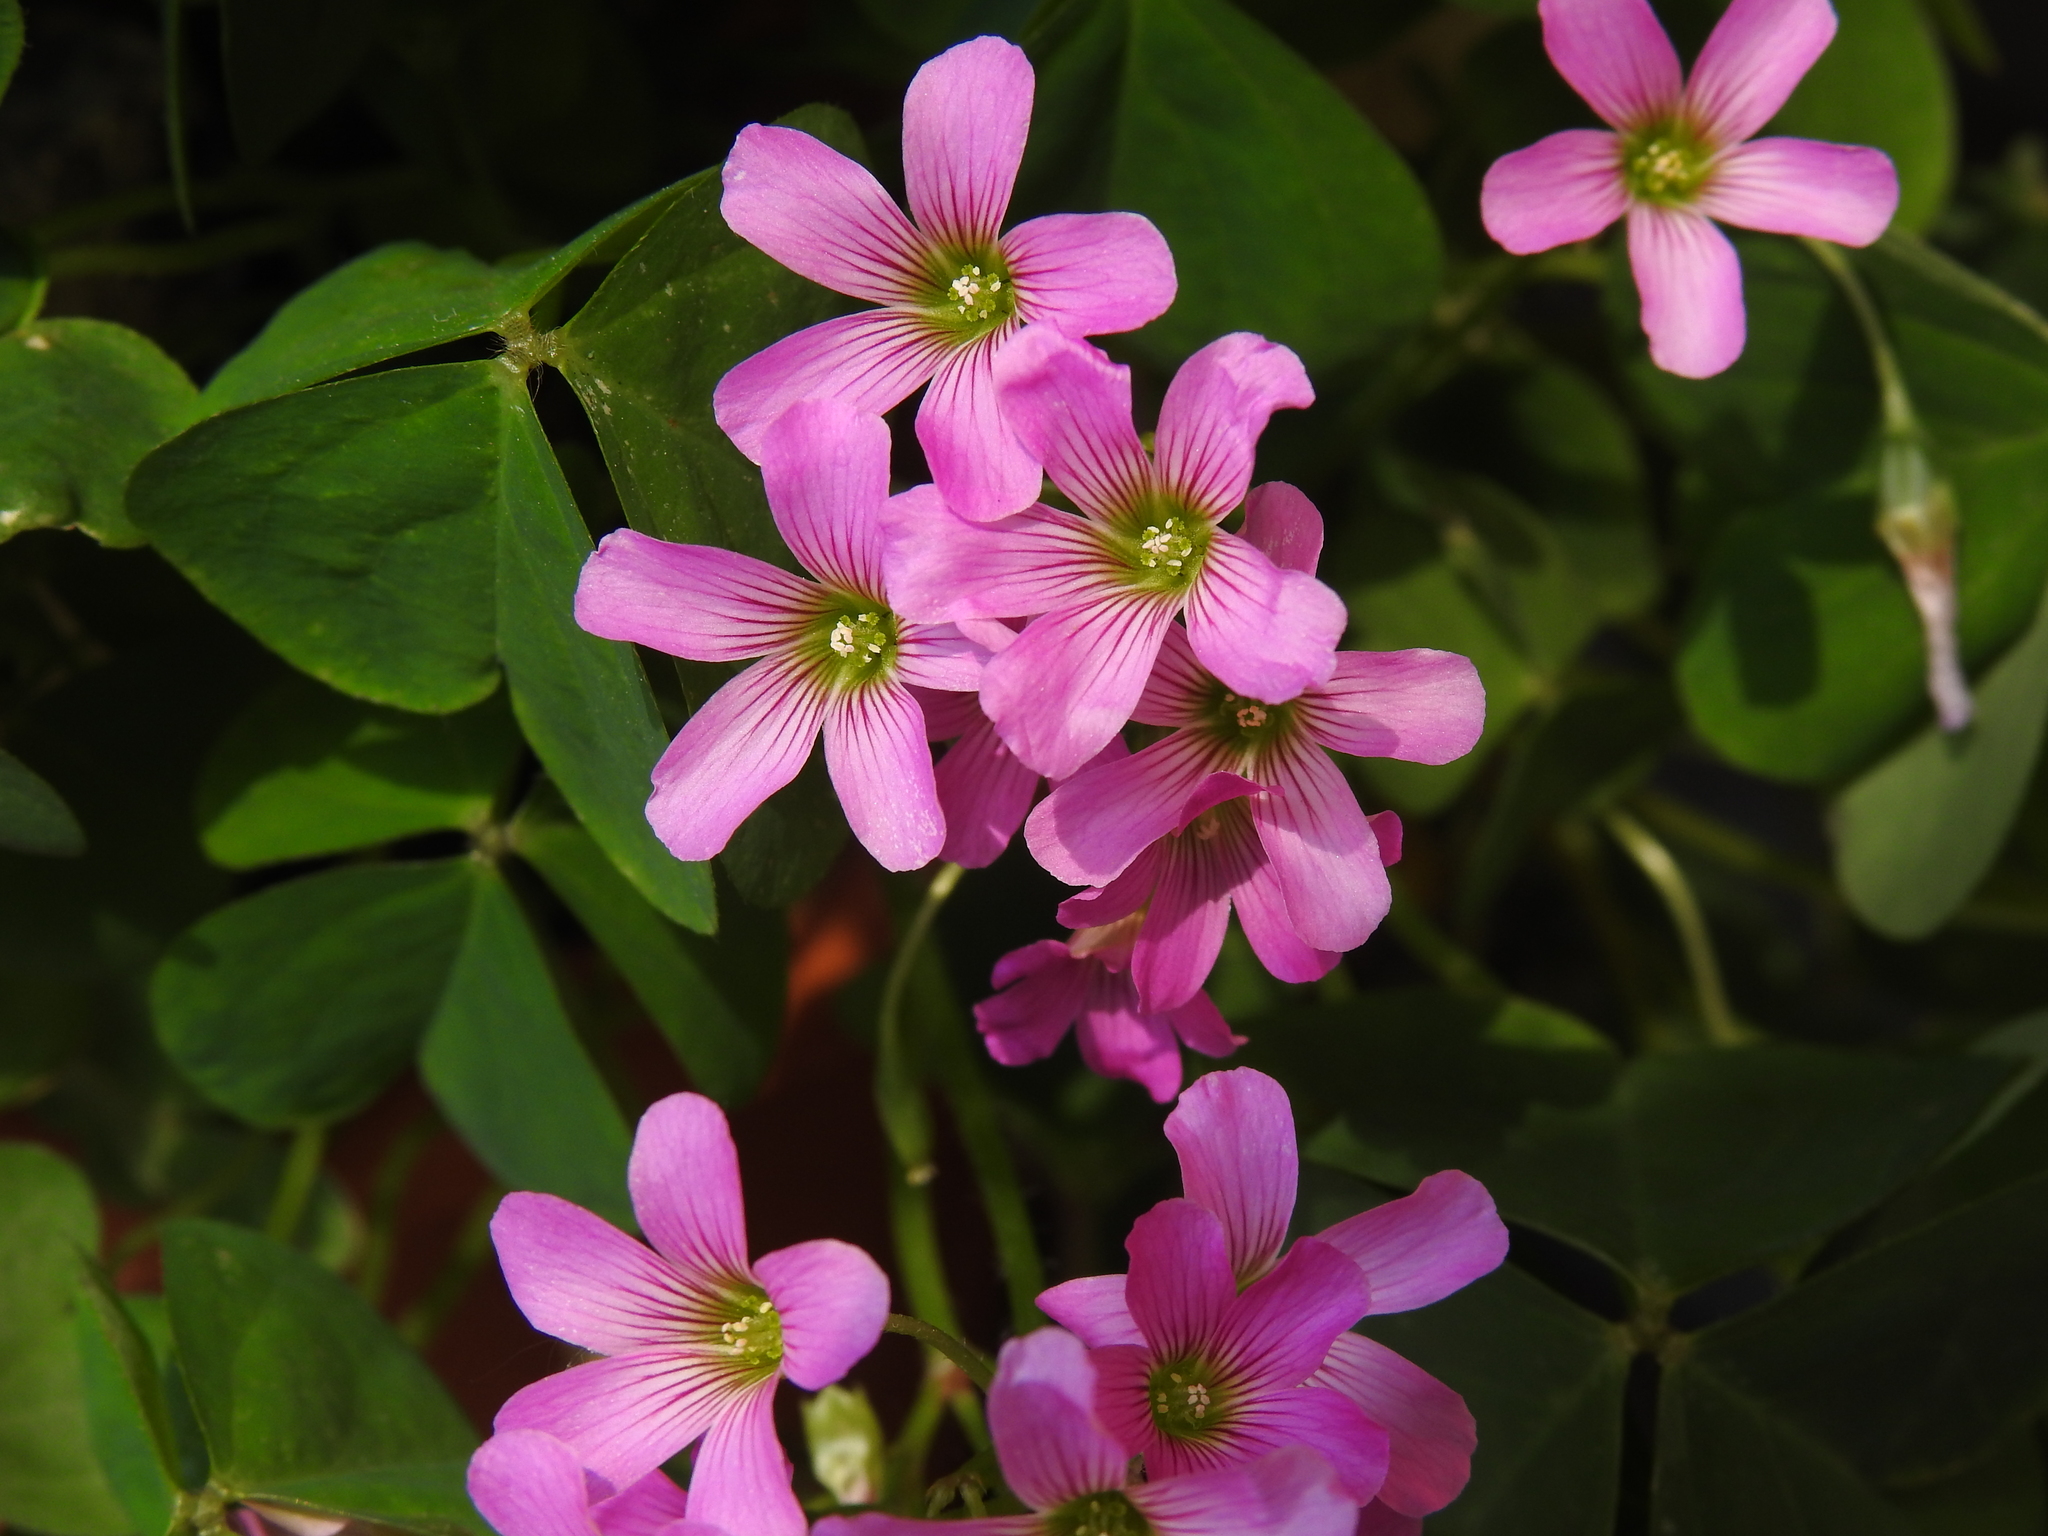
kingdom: Plantae
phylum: Tracheophyta
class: Magnoliopsida
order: Oxalidales
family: Oxalidaceae
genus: Oxalis
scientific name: Oxalis latifolia
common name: Garden pink-sorrel
